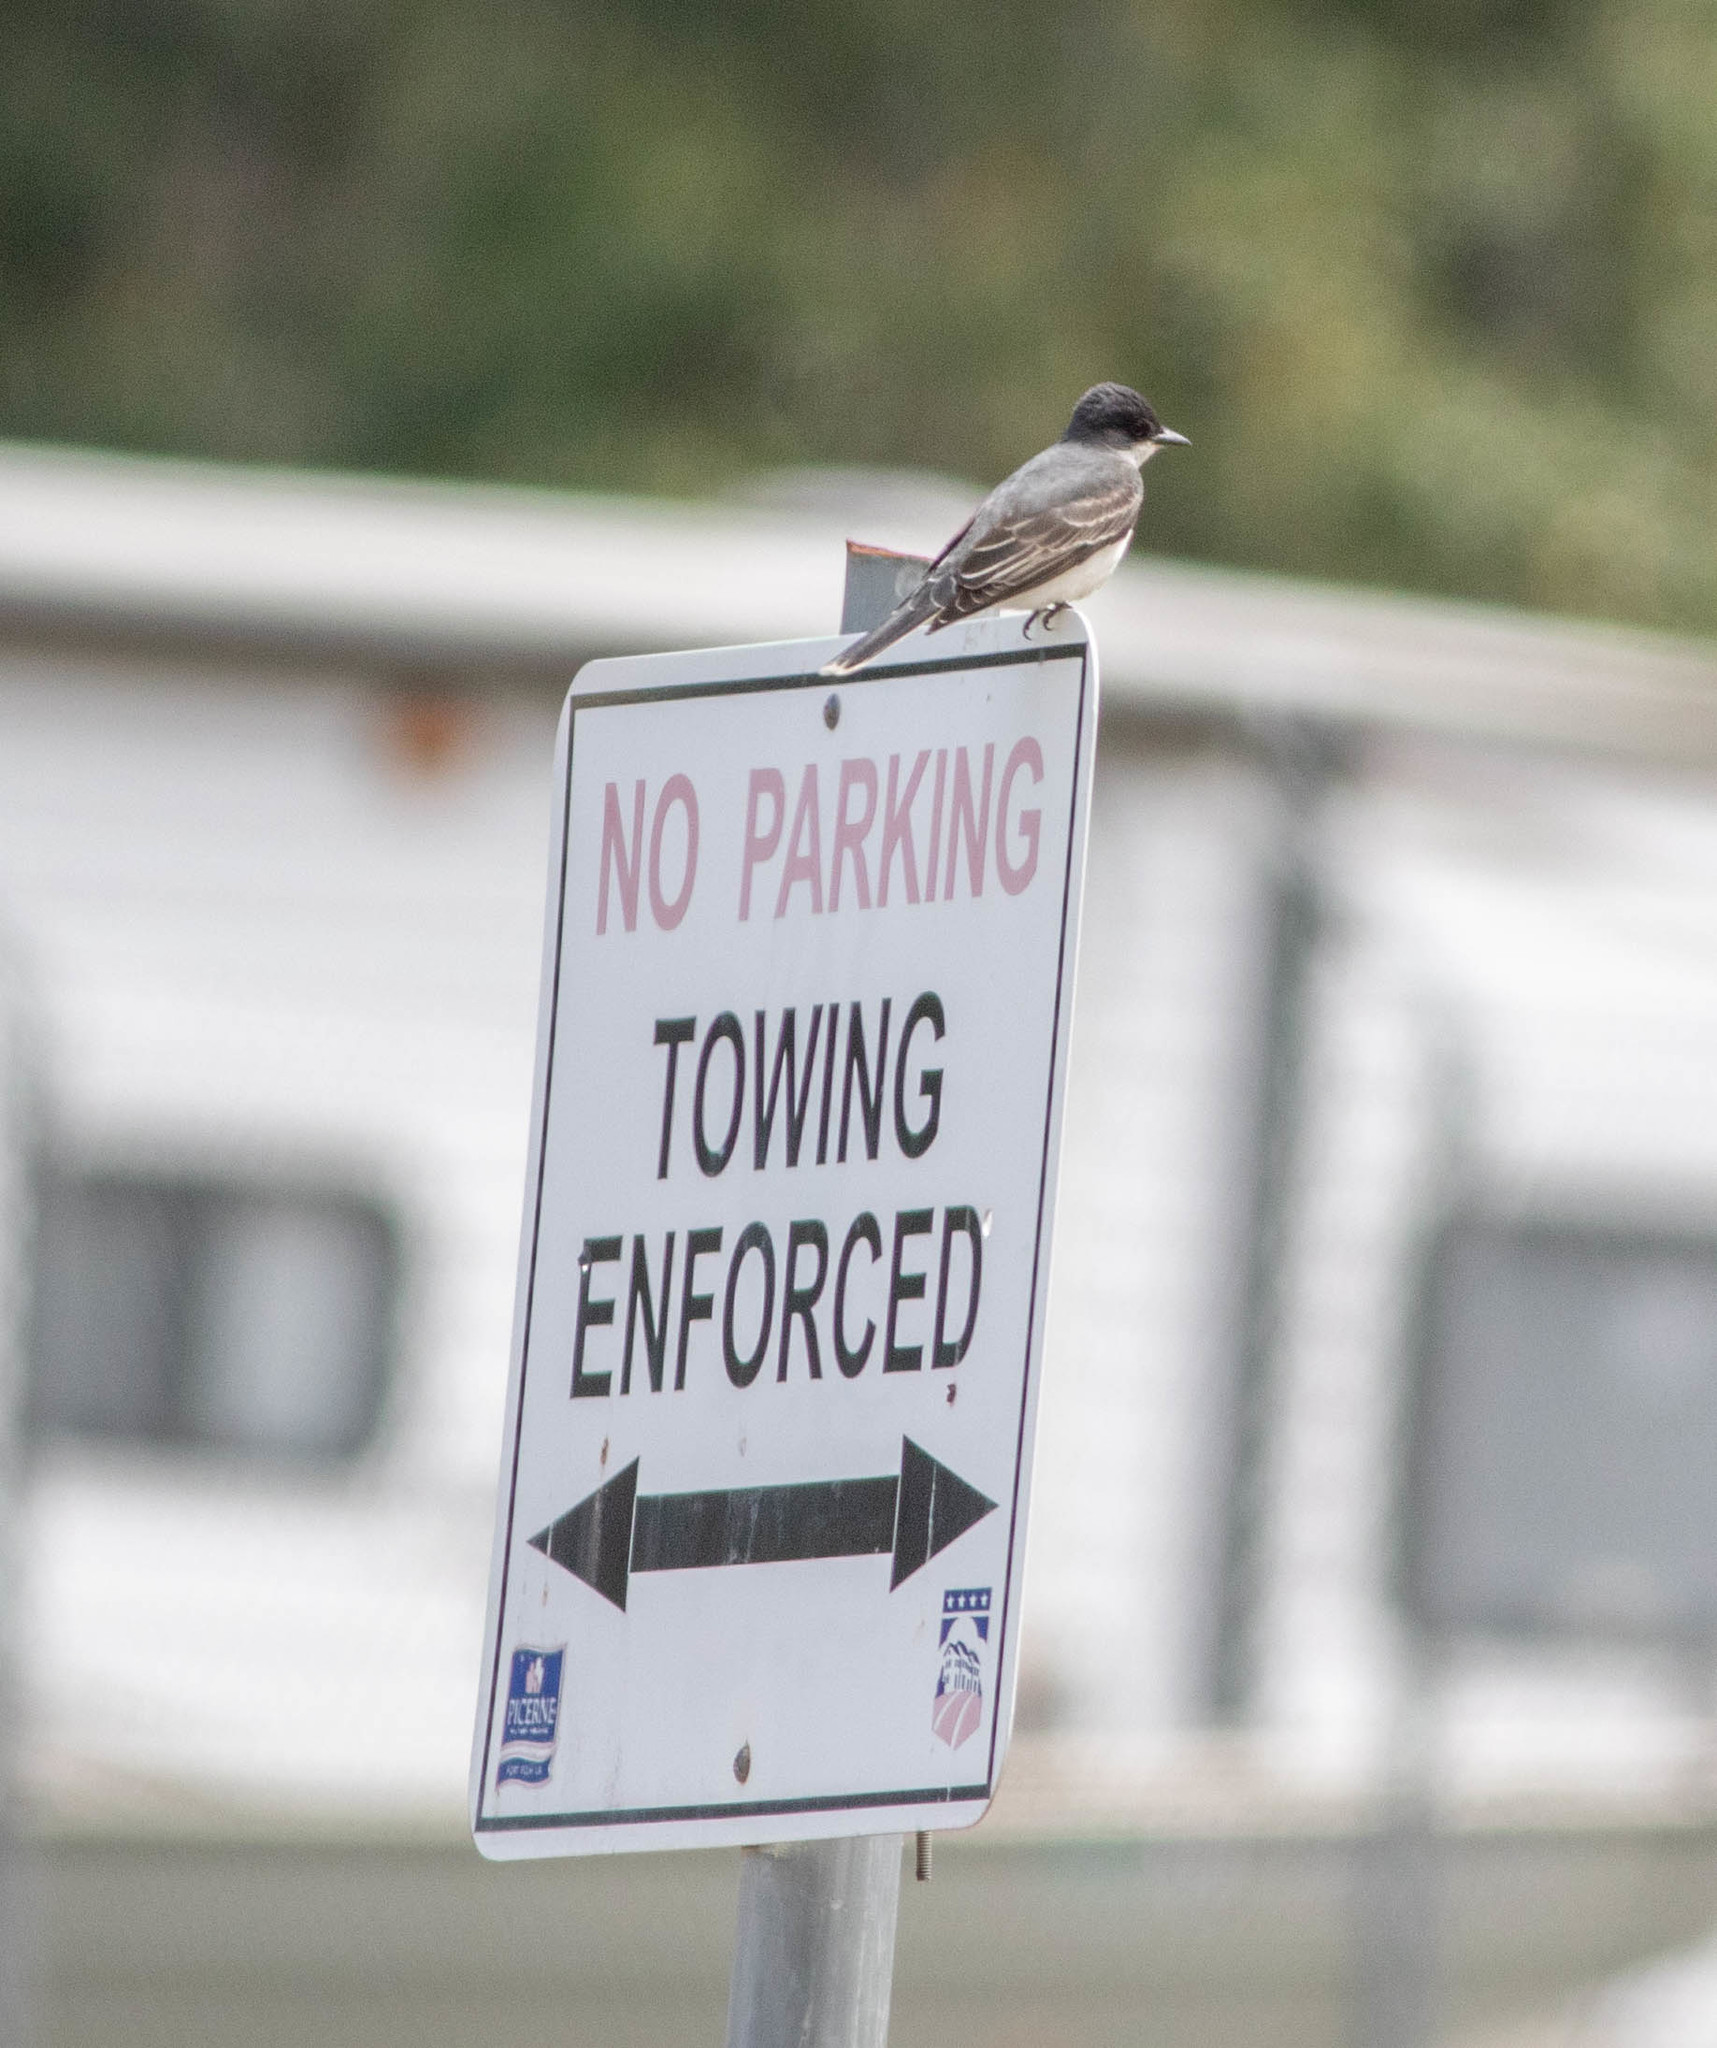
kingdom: Animalia
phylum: Chordata
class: Aves
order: Passeriformes
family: Tyrannidae
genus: Tyrannus
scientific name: Tyrannus tyrannus
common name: Eastern kingbird
